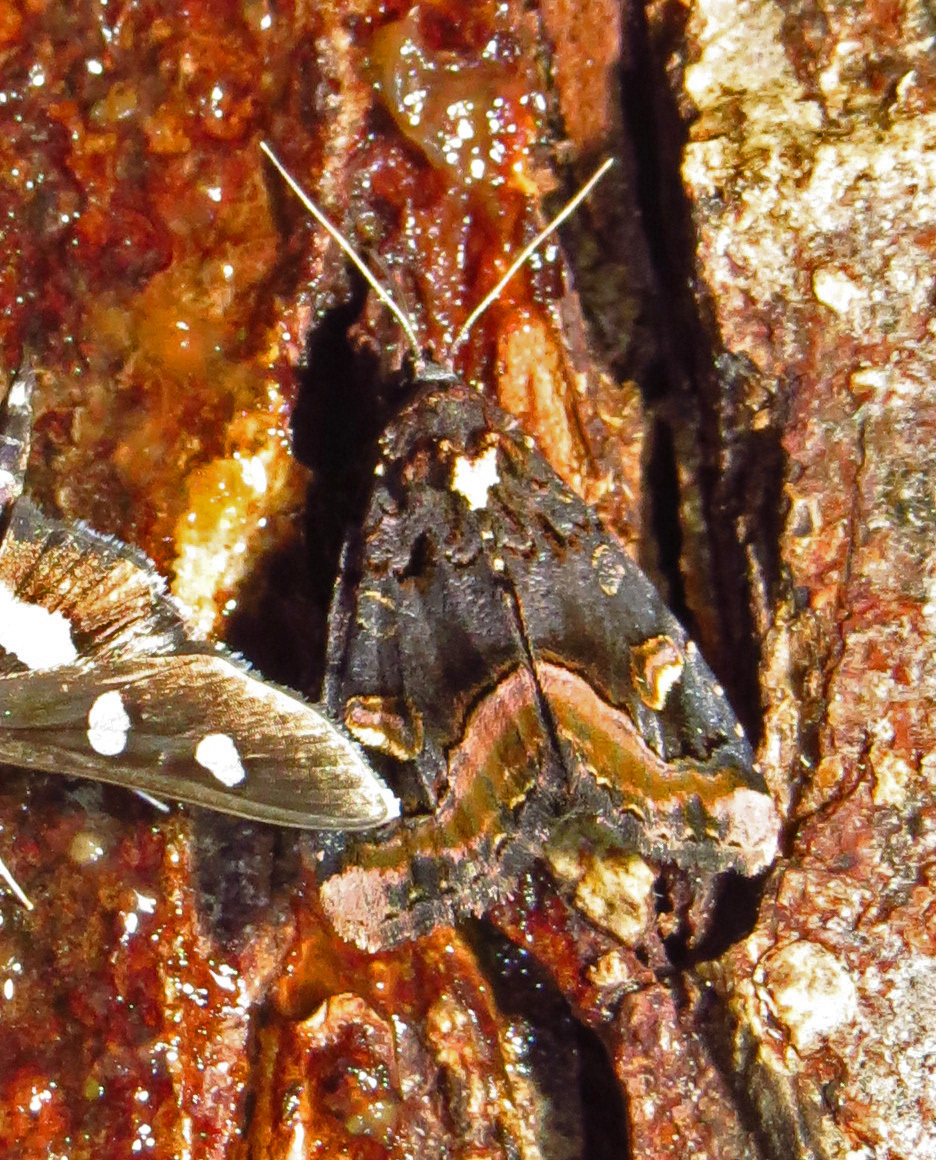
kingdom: Animalia
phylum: Arthropoda
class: Insecta
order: Lepidoptera
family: Noctuidae
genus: Homophoberia
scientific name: Homophoberia apicosa
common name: Black wedge-spot
